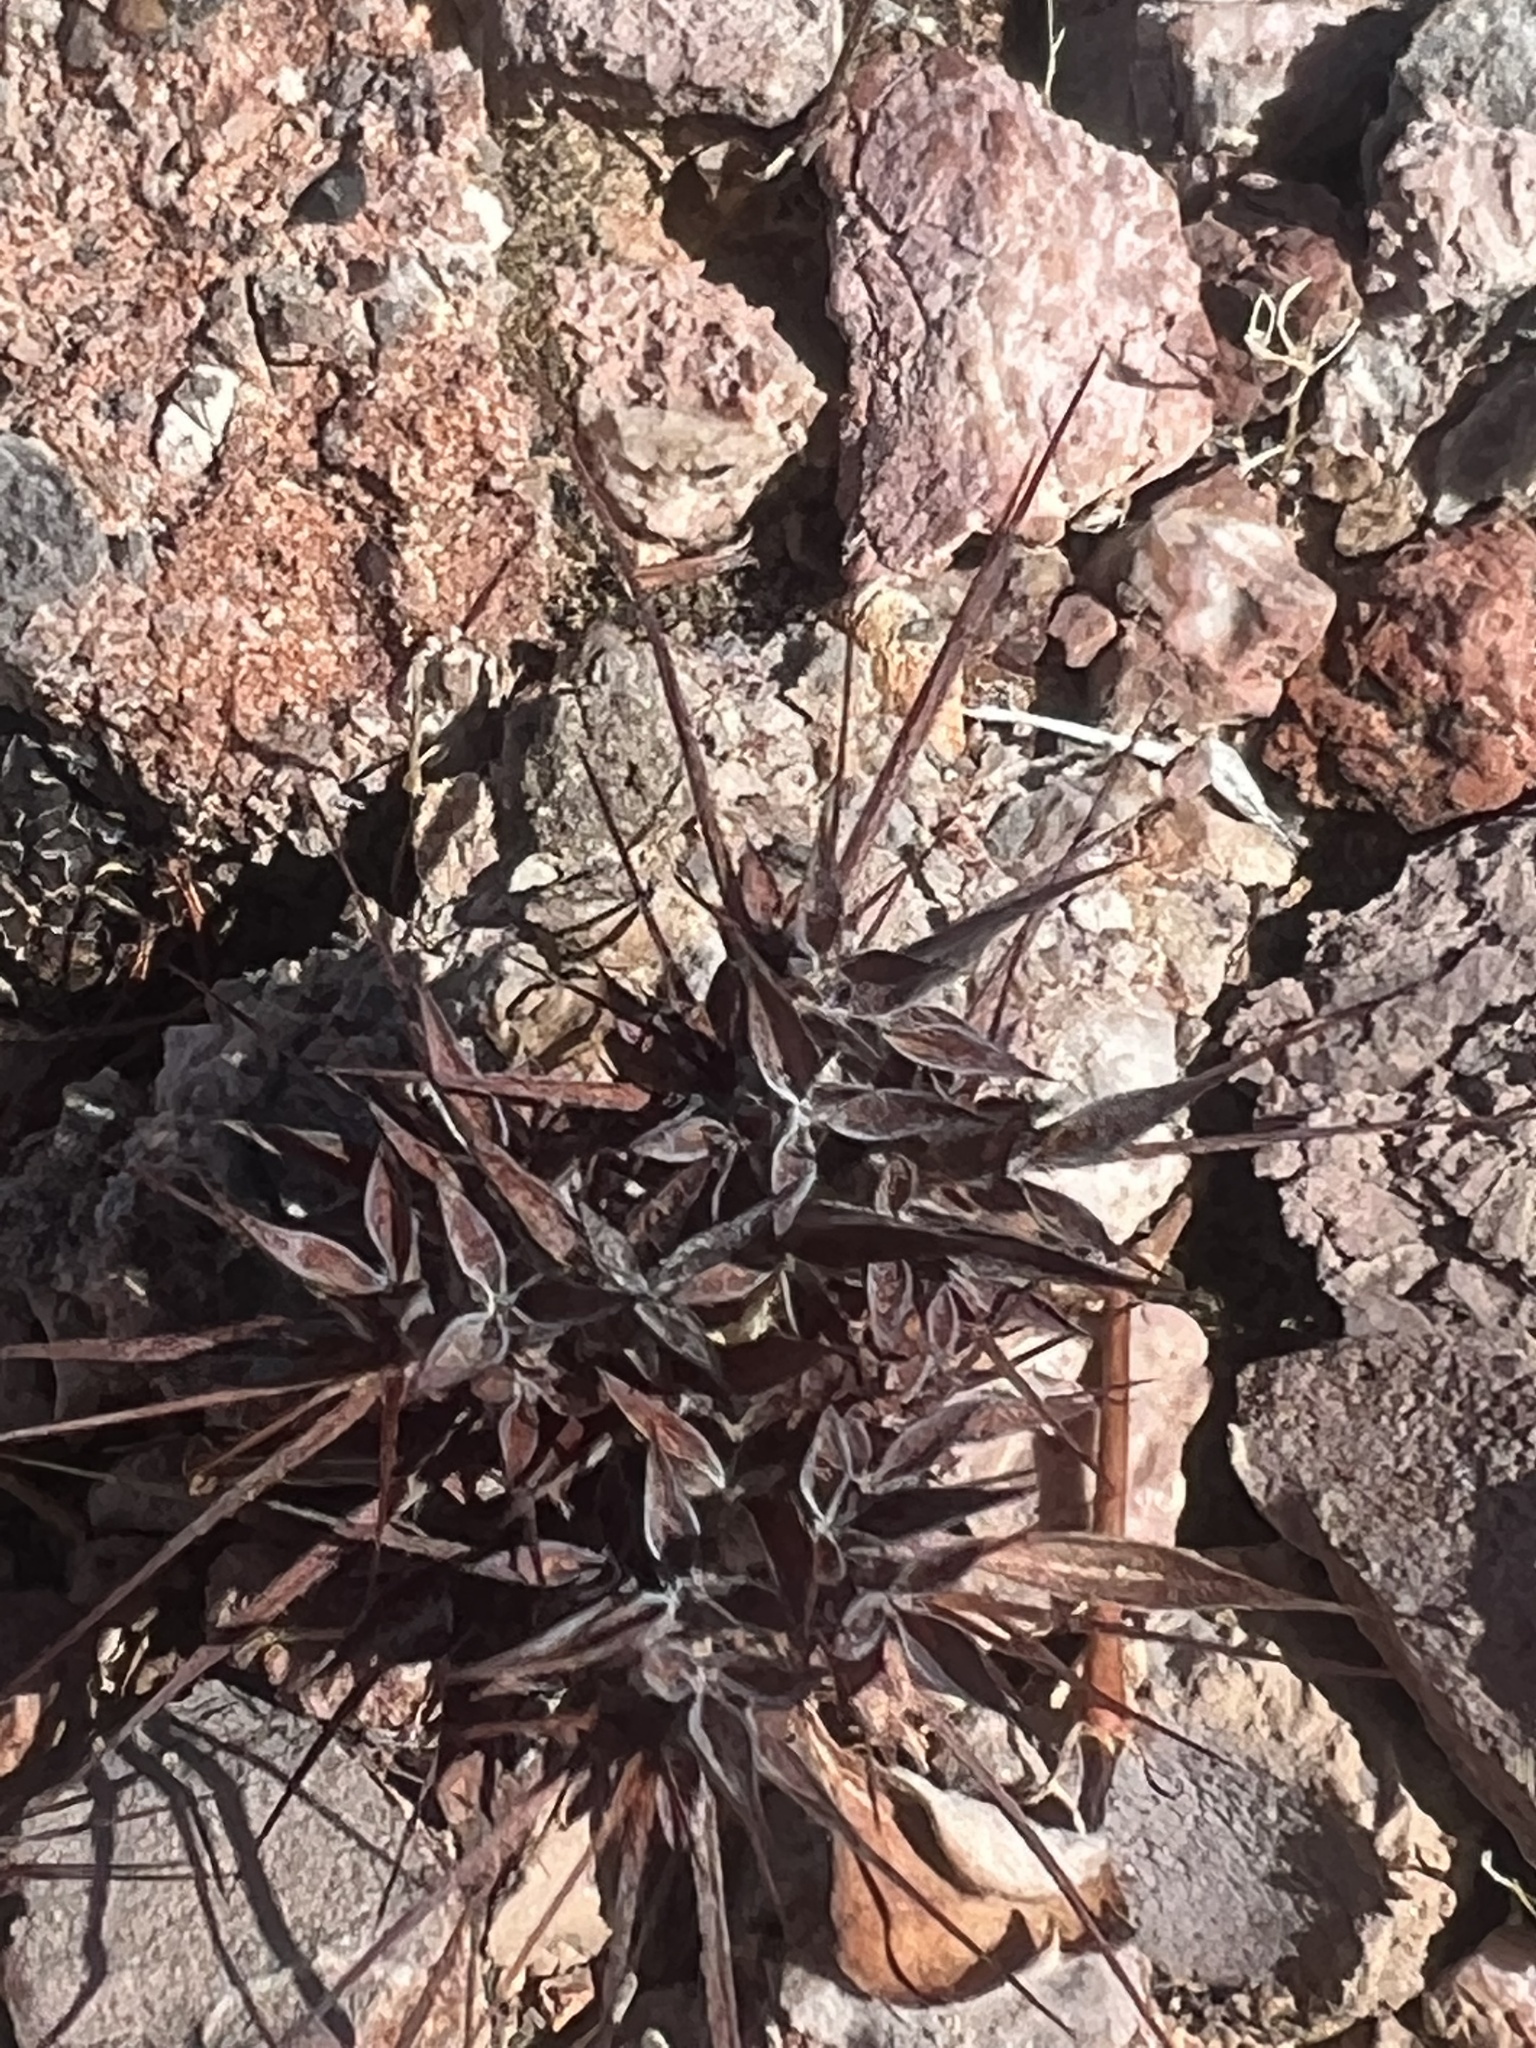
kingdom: Plantae
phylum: Tracheophyta
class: Magnoliopsida
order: Caryophyllales
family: Polygonaceae
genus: Chorizanthe
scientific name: Chorizanthe rigida
